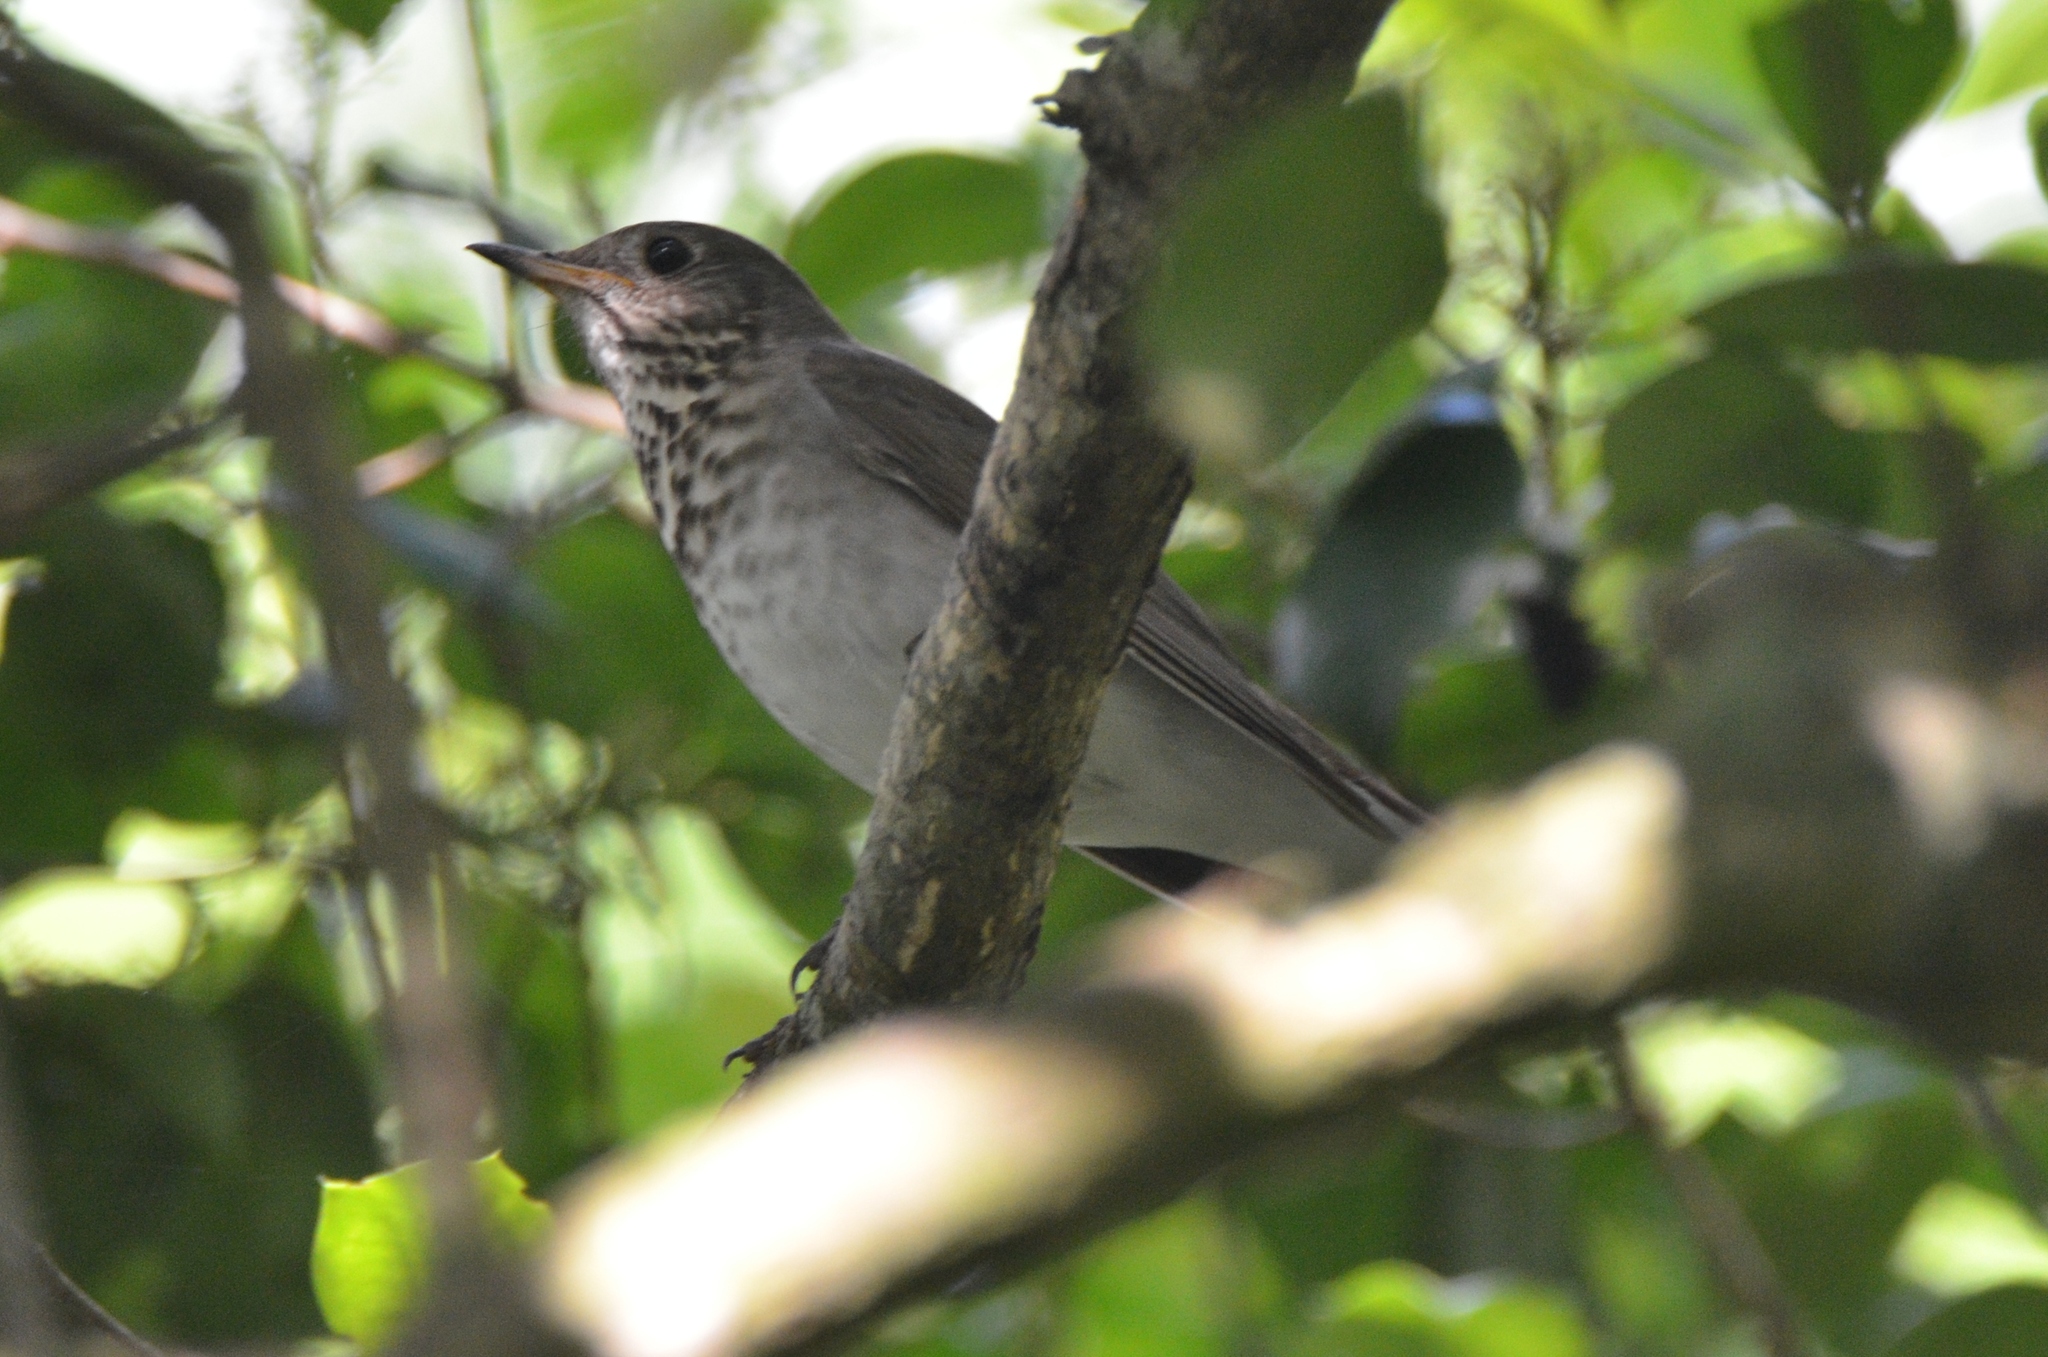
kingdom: Animalia
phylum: Chordata
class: Aves
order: Passeriformes
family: Turdidae
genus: Catharus
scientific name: Catharus minimus
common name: Grey-cheeked thrush
